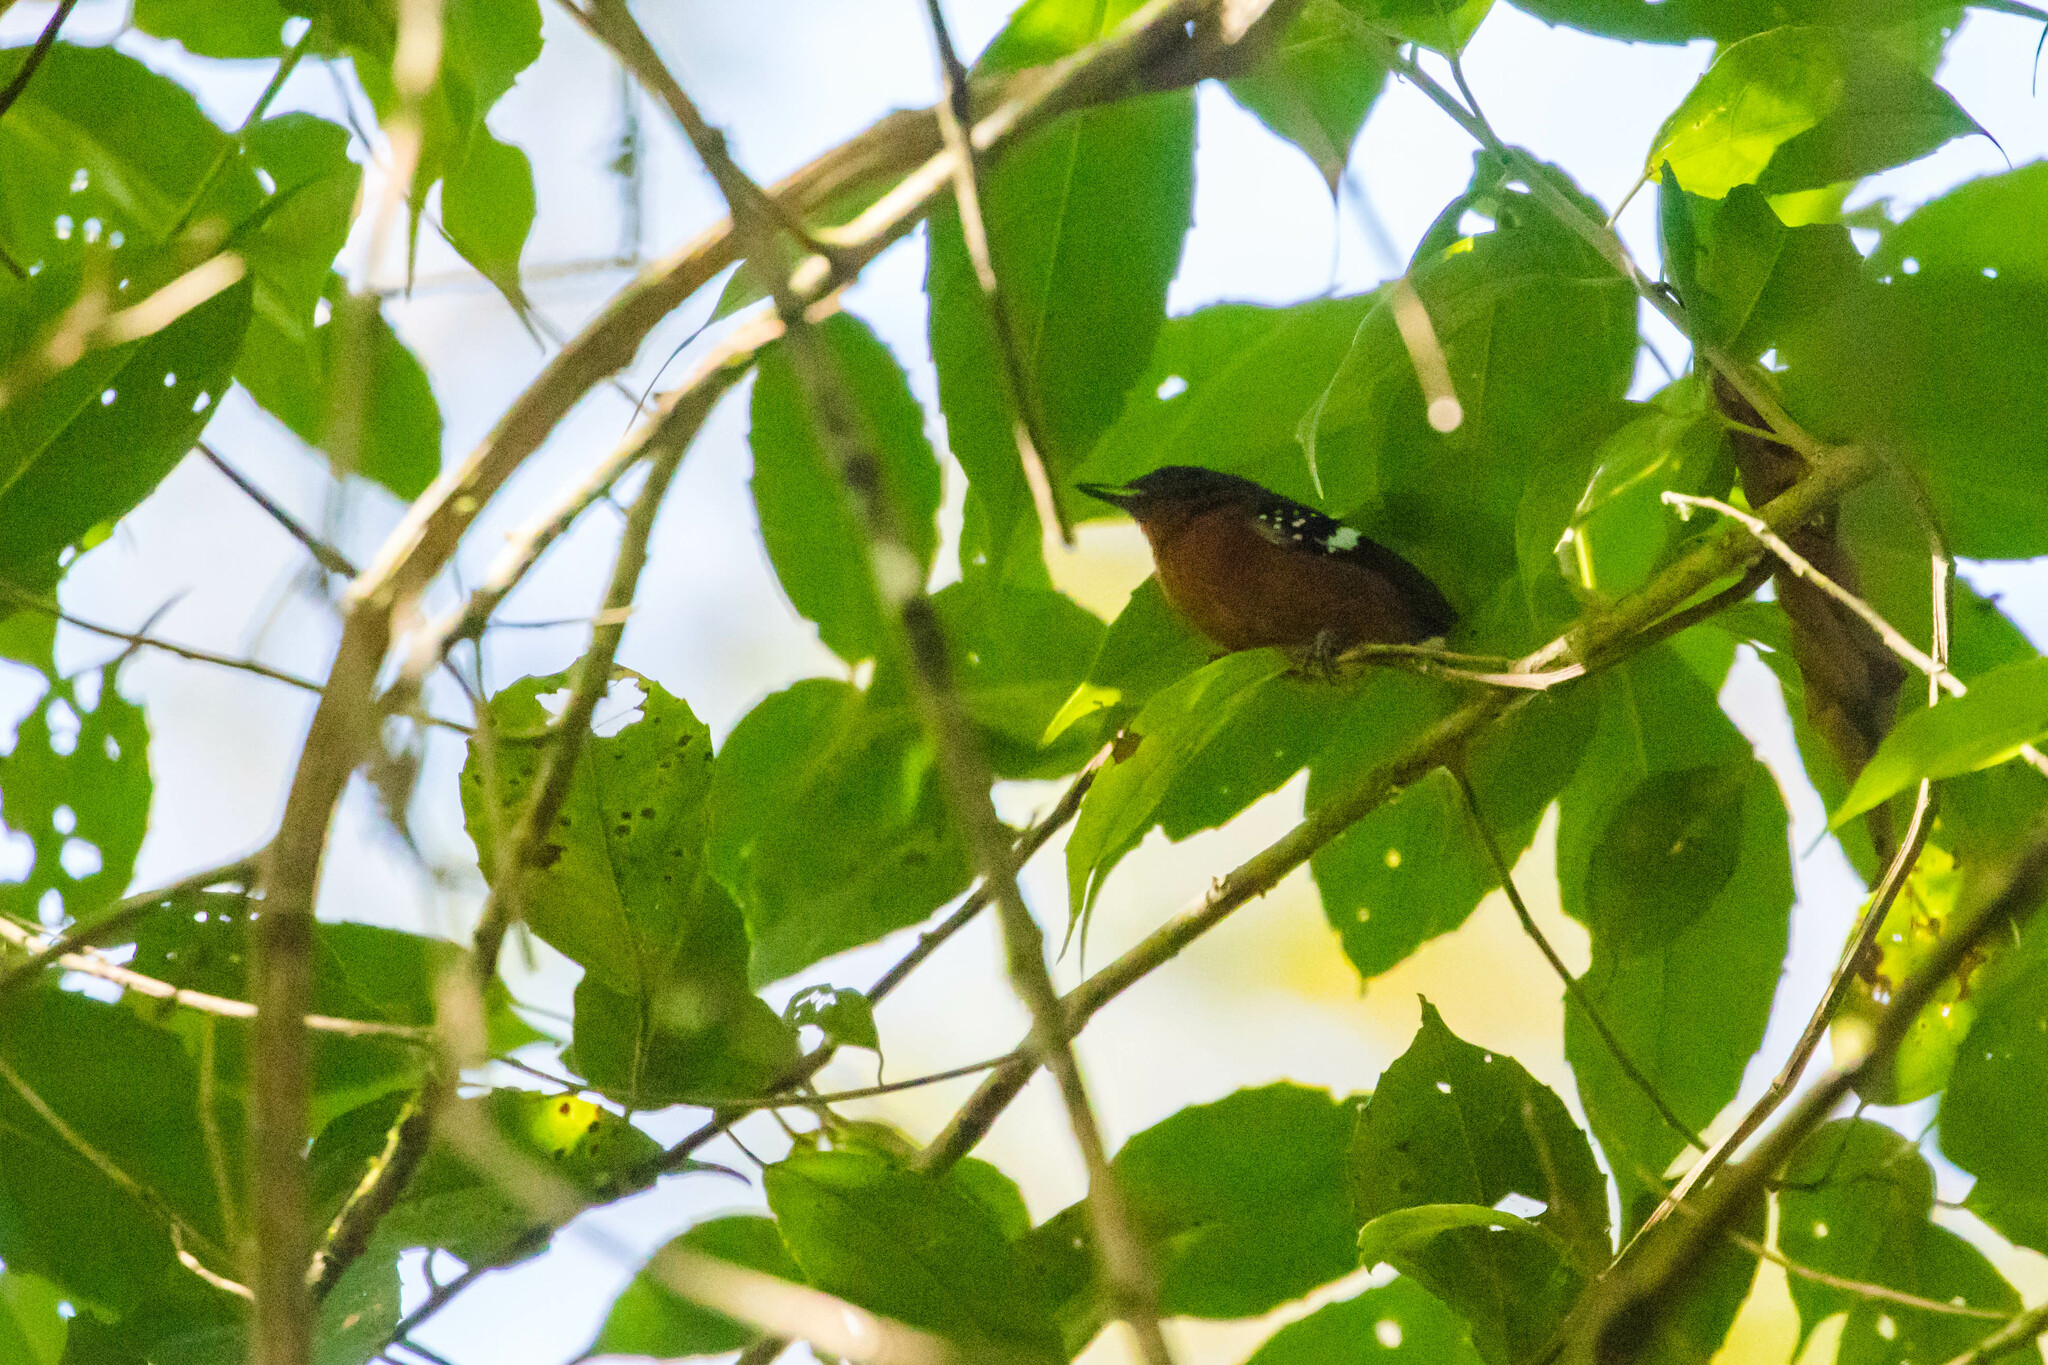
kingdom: Animalia
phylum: Chordata
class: Aves
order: Passeriformes
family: Thamnophilidae
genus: Microrhopias
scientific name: Microrhopias quixensis
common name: Dot-winged antwren
